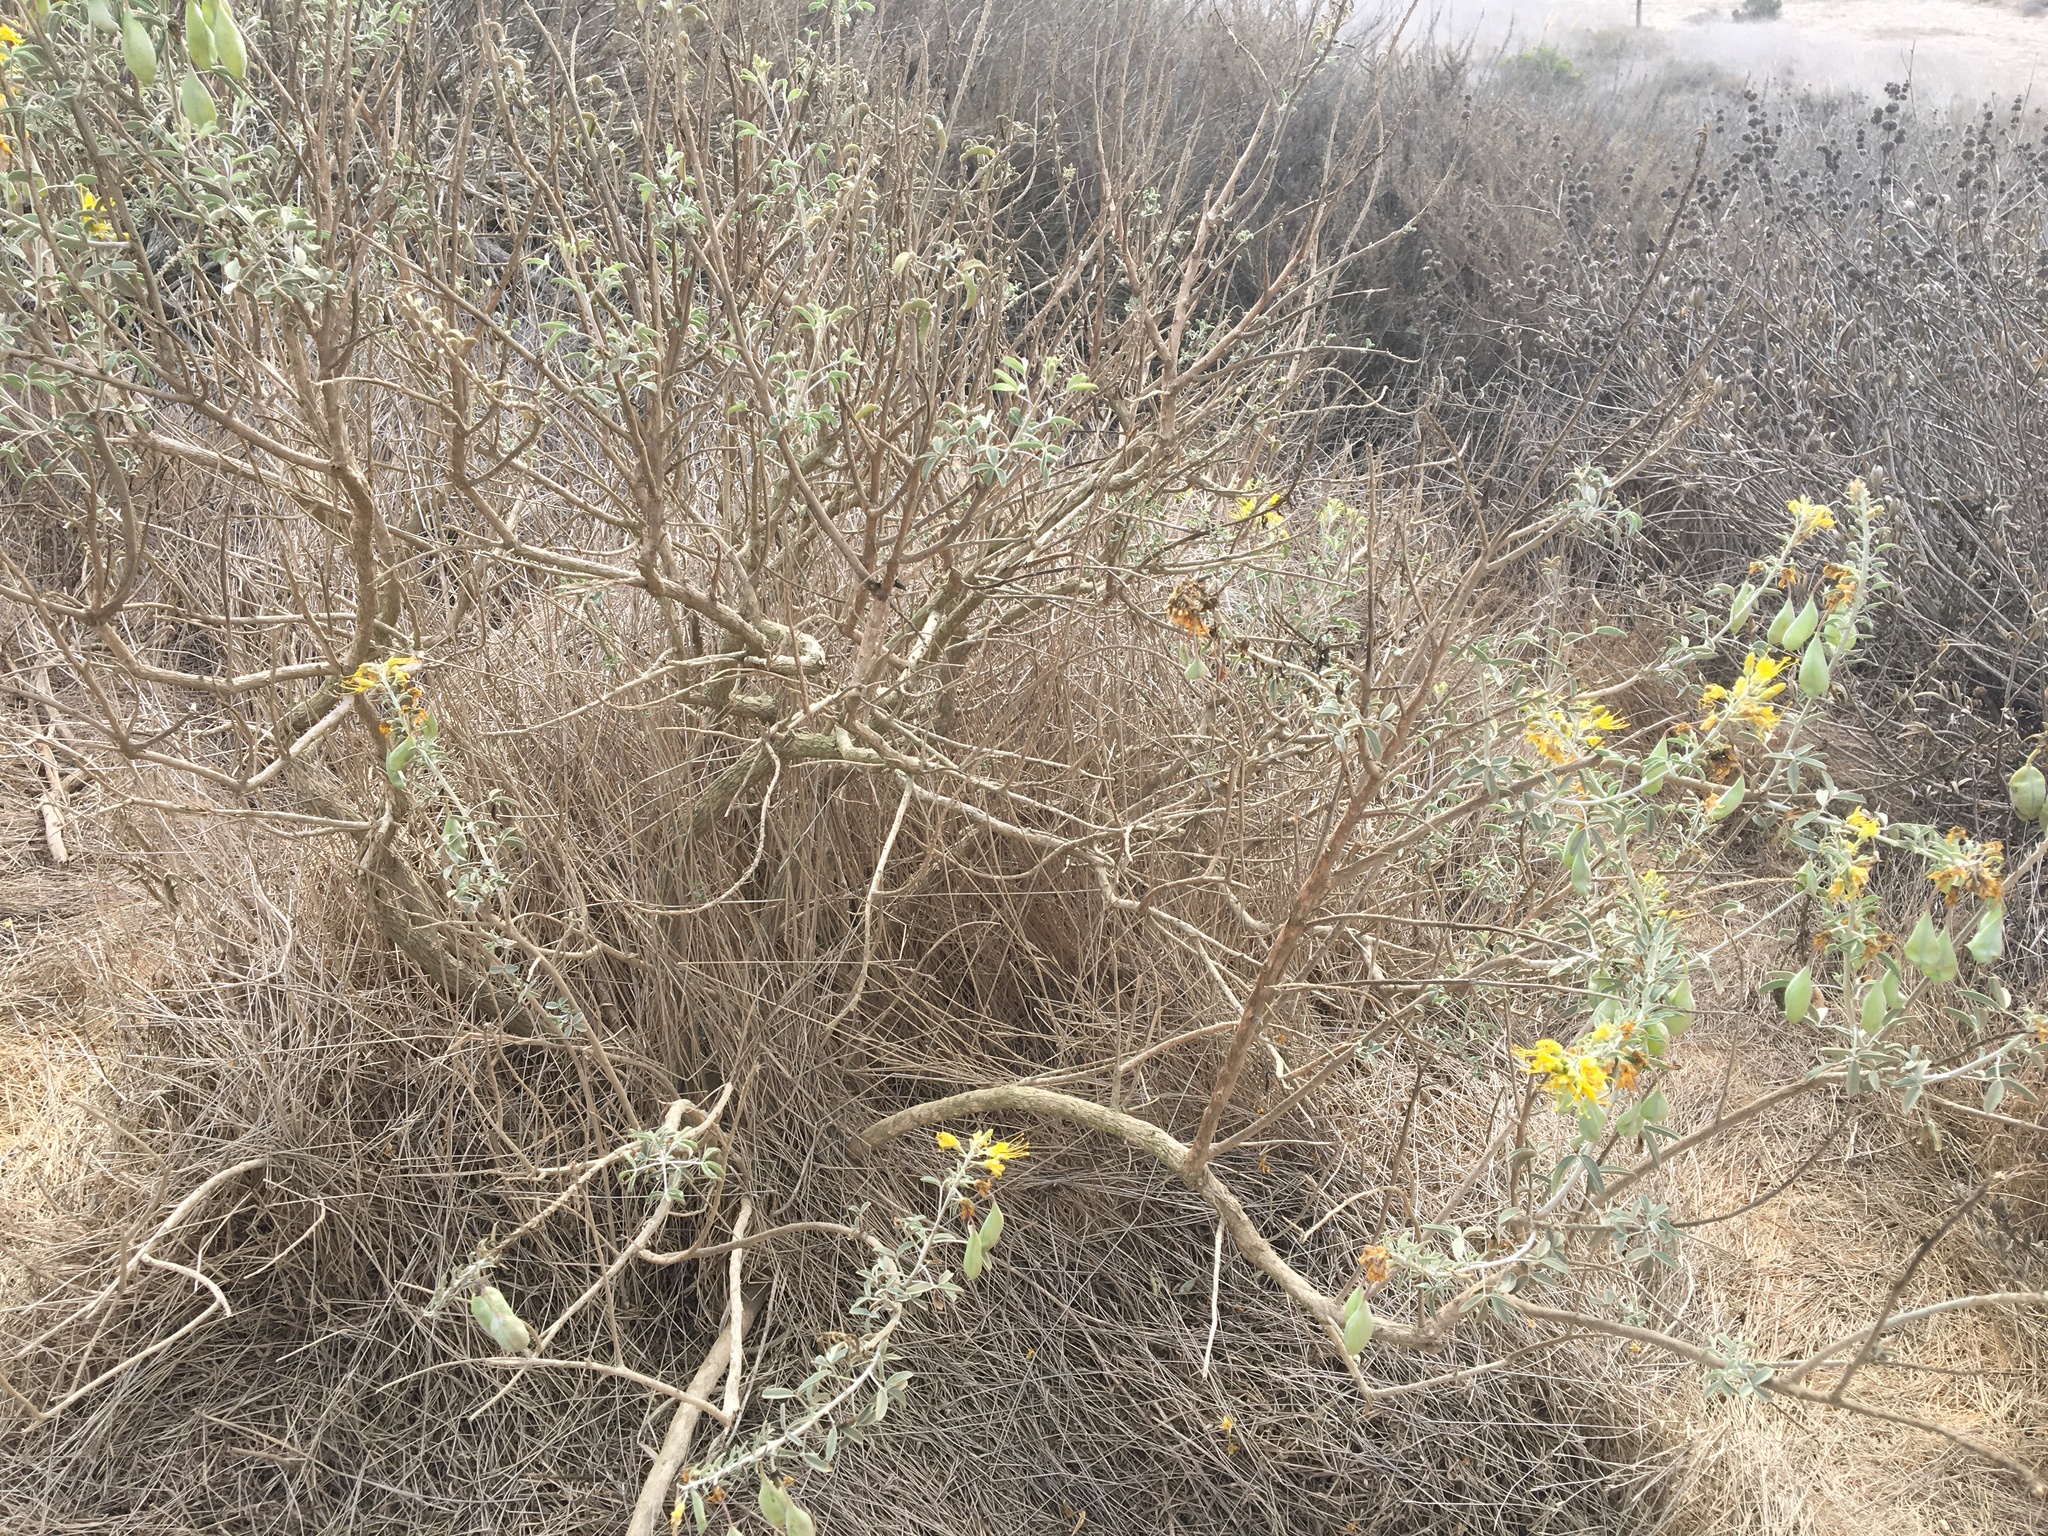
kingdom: Plantae
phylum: Tracheophyta
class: Magnoliopsida
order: Brassicales
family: Cleomaceae
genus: Cleomella
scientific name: Cleomella arborea
